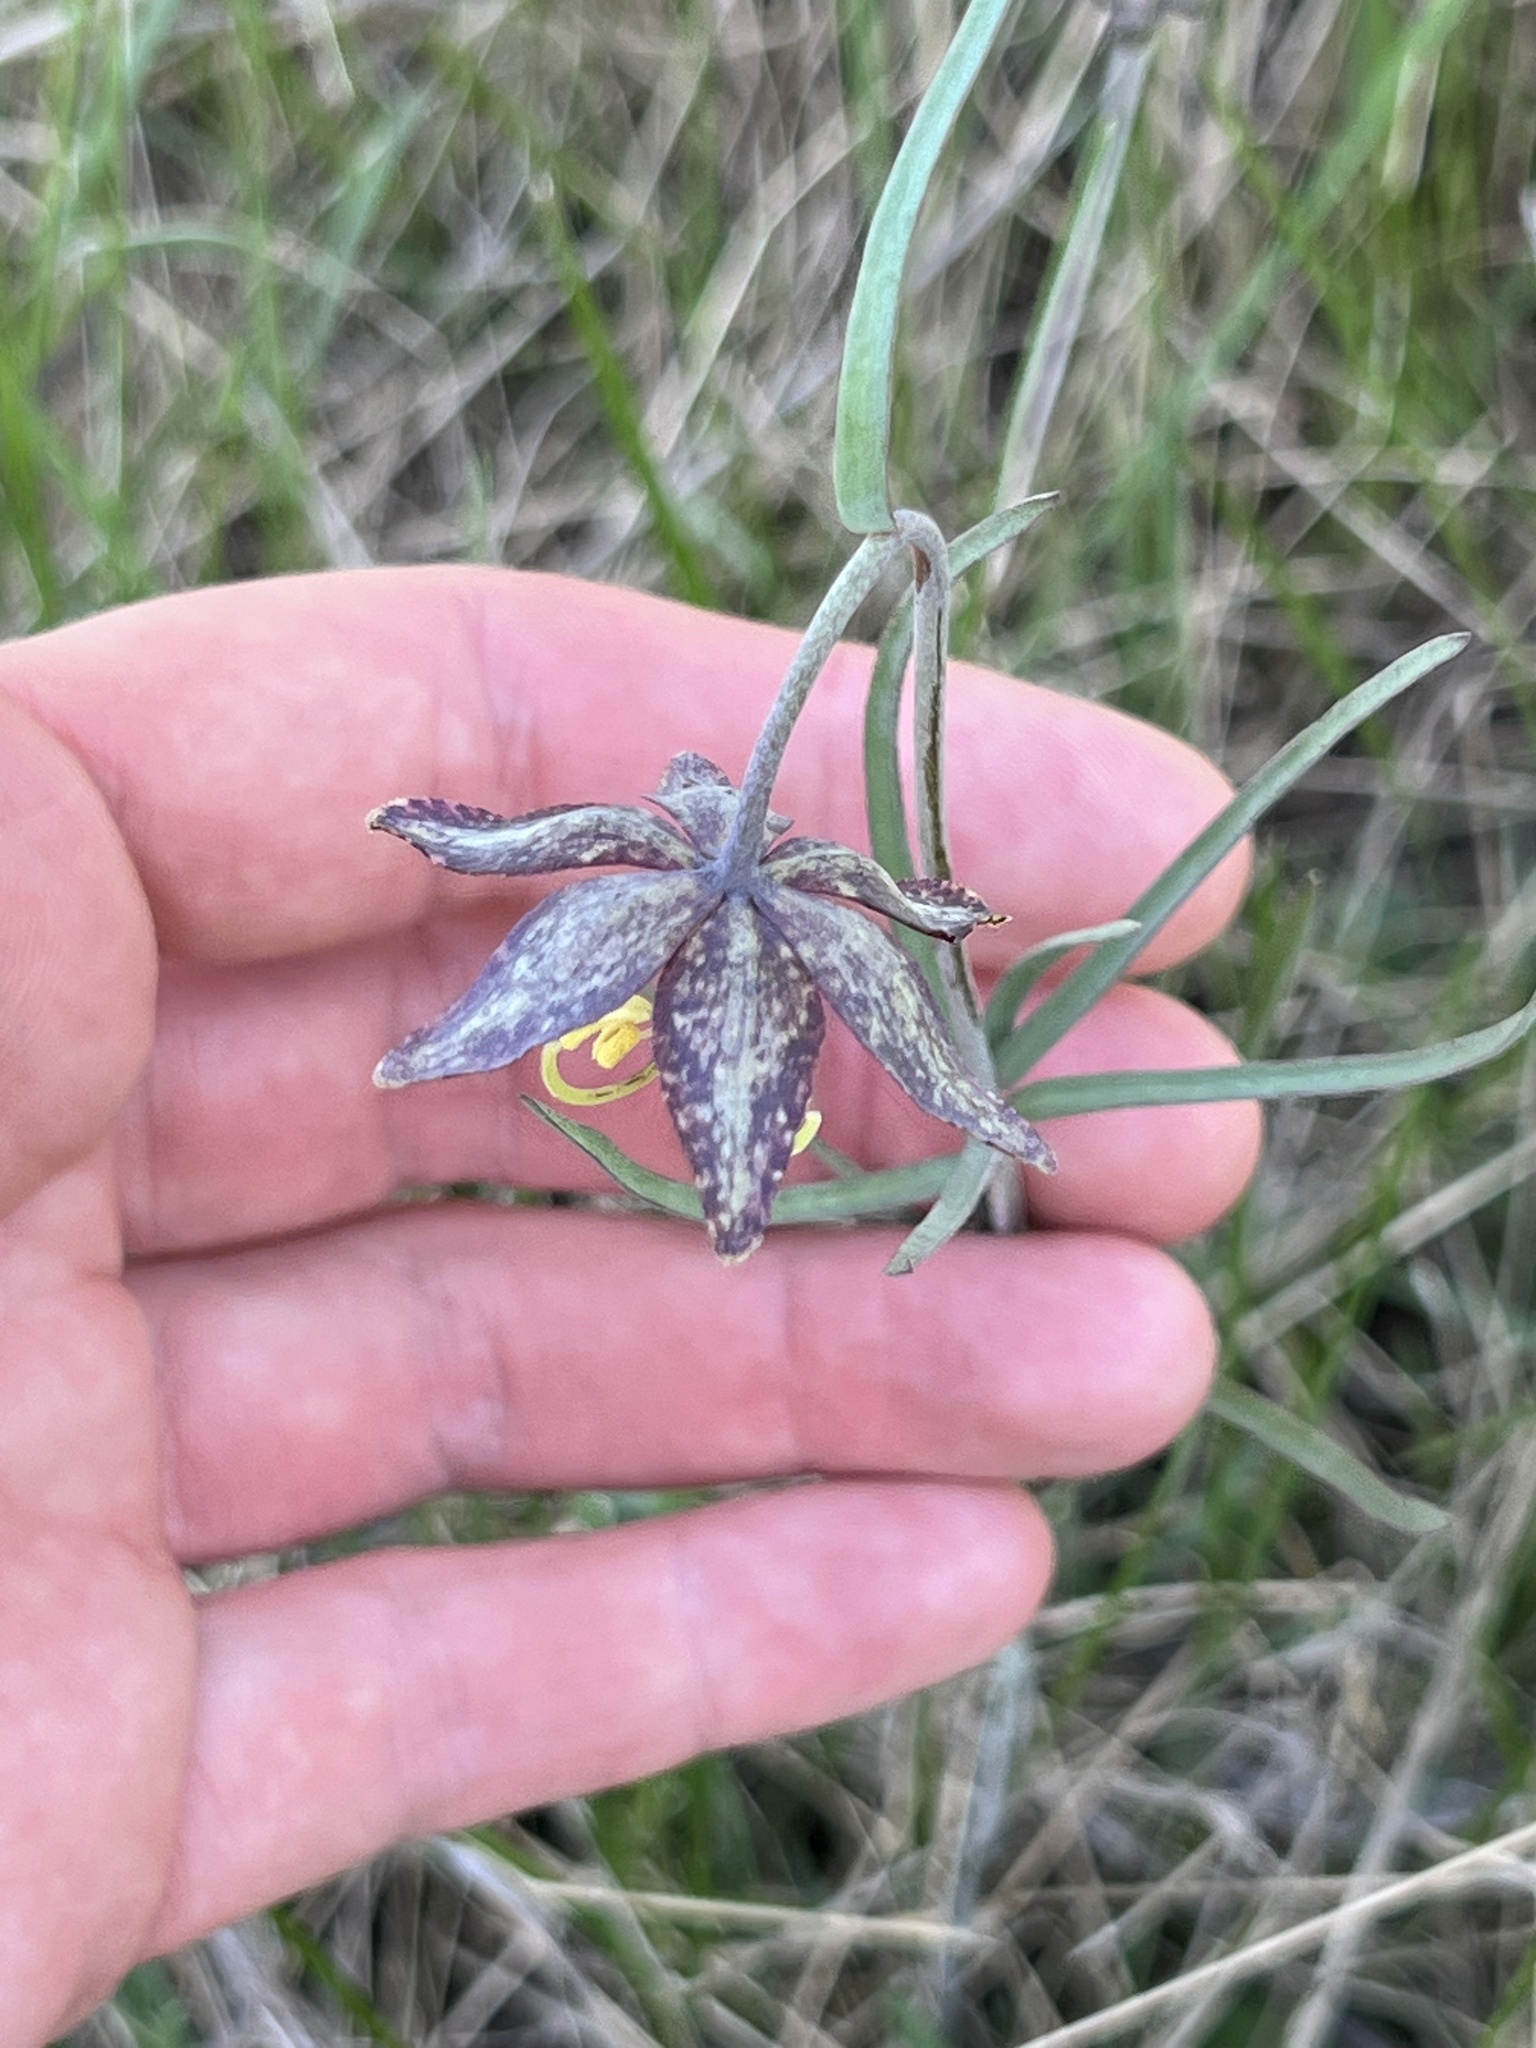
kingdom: Plantae
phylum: Tracheophyta
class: Liliopsida
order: Liliales
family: Liliaceae
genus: Fritillaria
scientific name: Fritillaria atropurpurea
